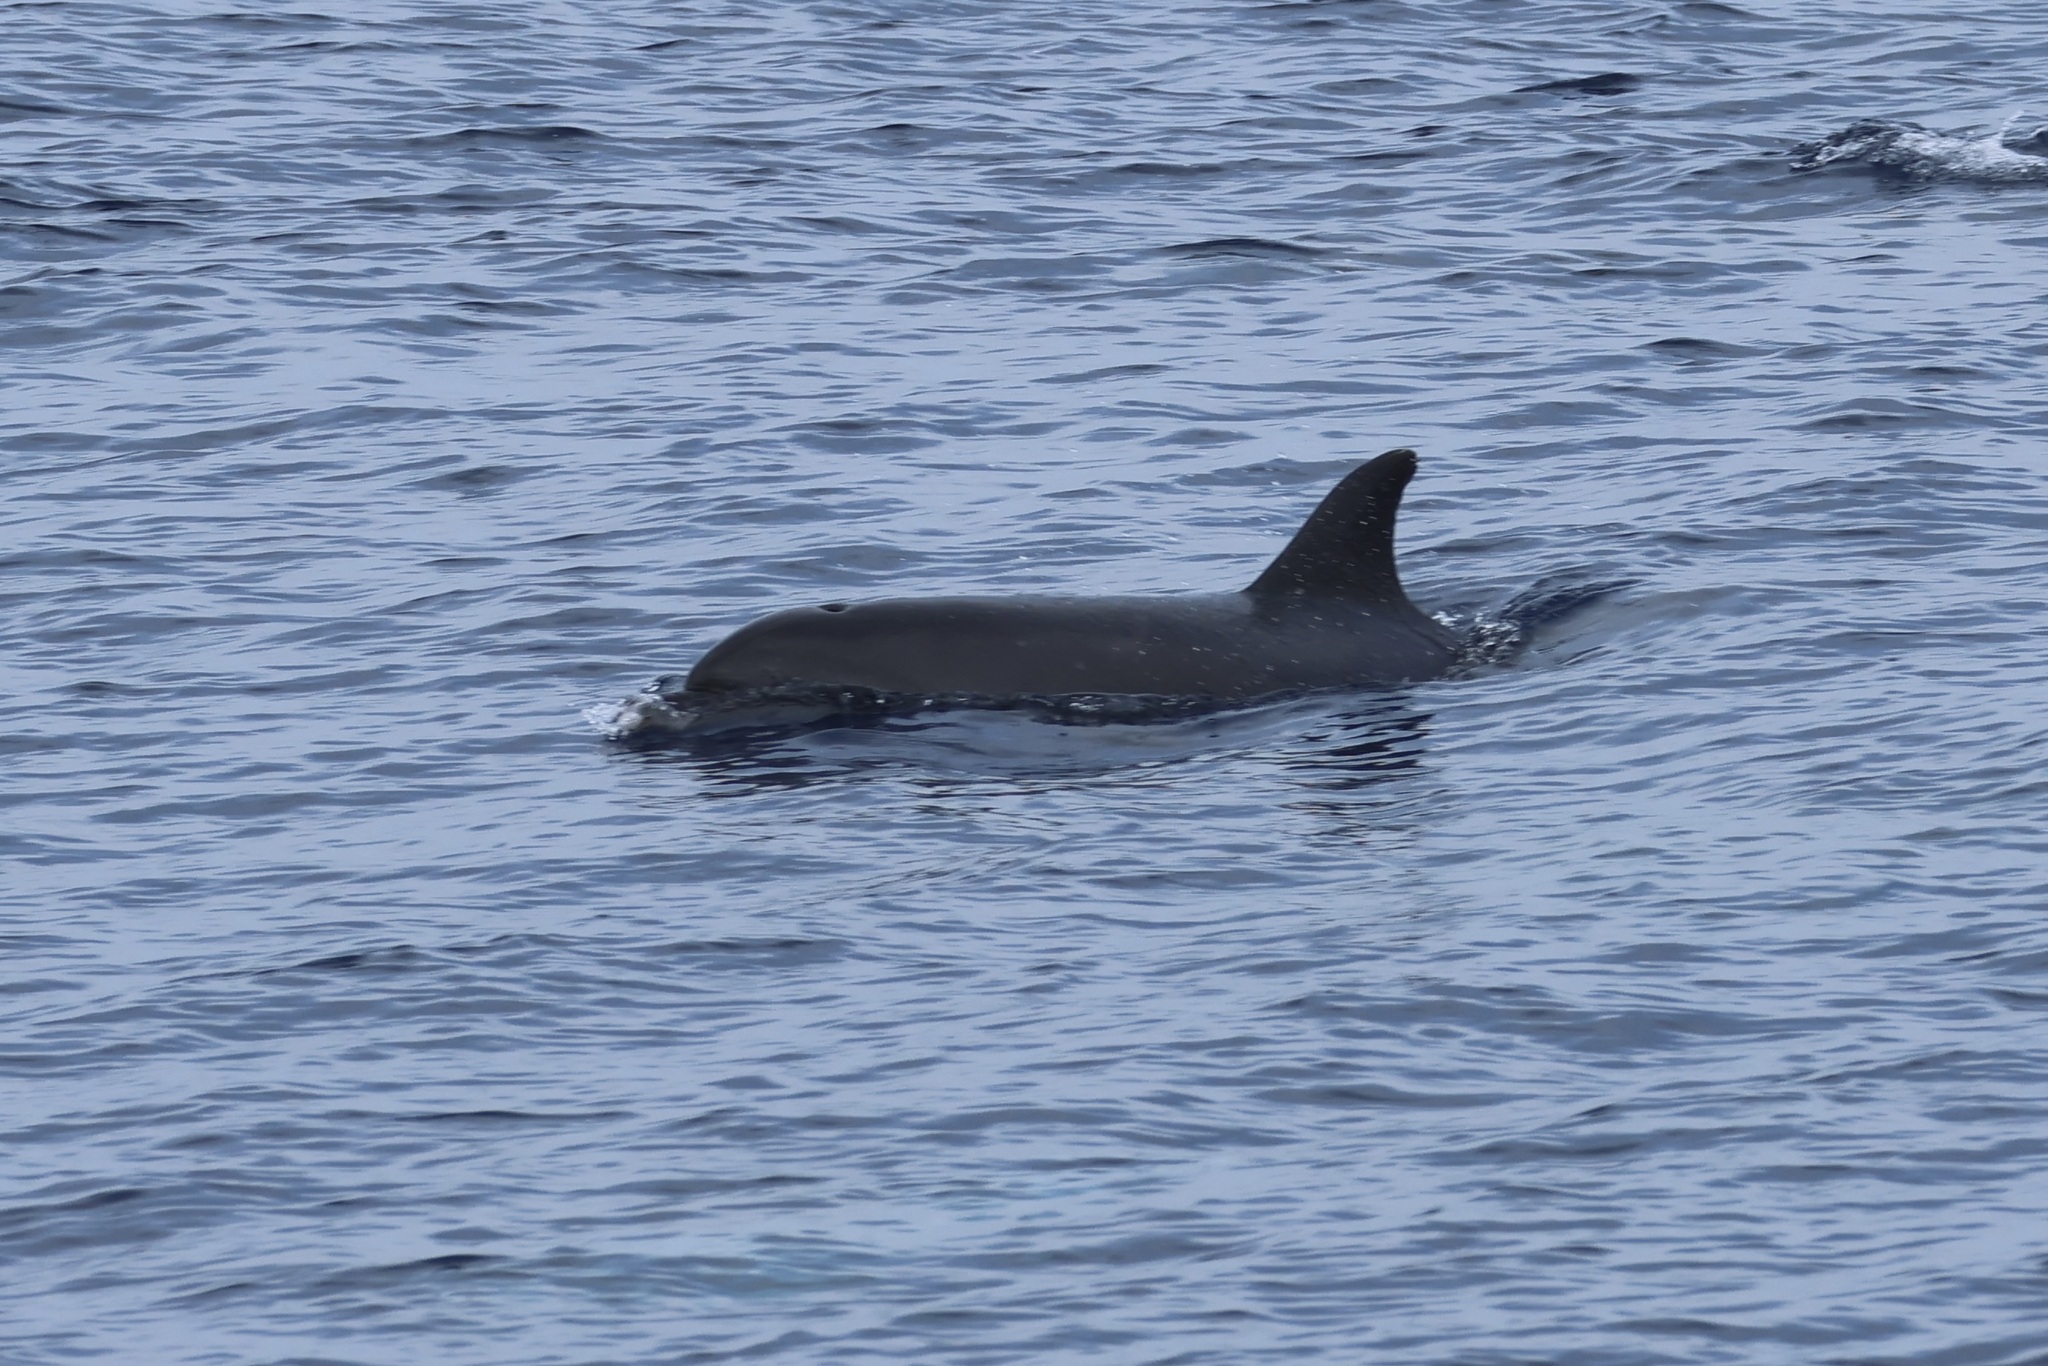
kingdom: Animalia
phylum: Chordata
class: Mammalia
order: Cetacea
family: Delphinidae
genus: Tursiops
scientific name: Tursiops truncatus
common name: Bottlenose dolphin
